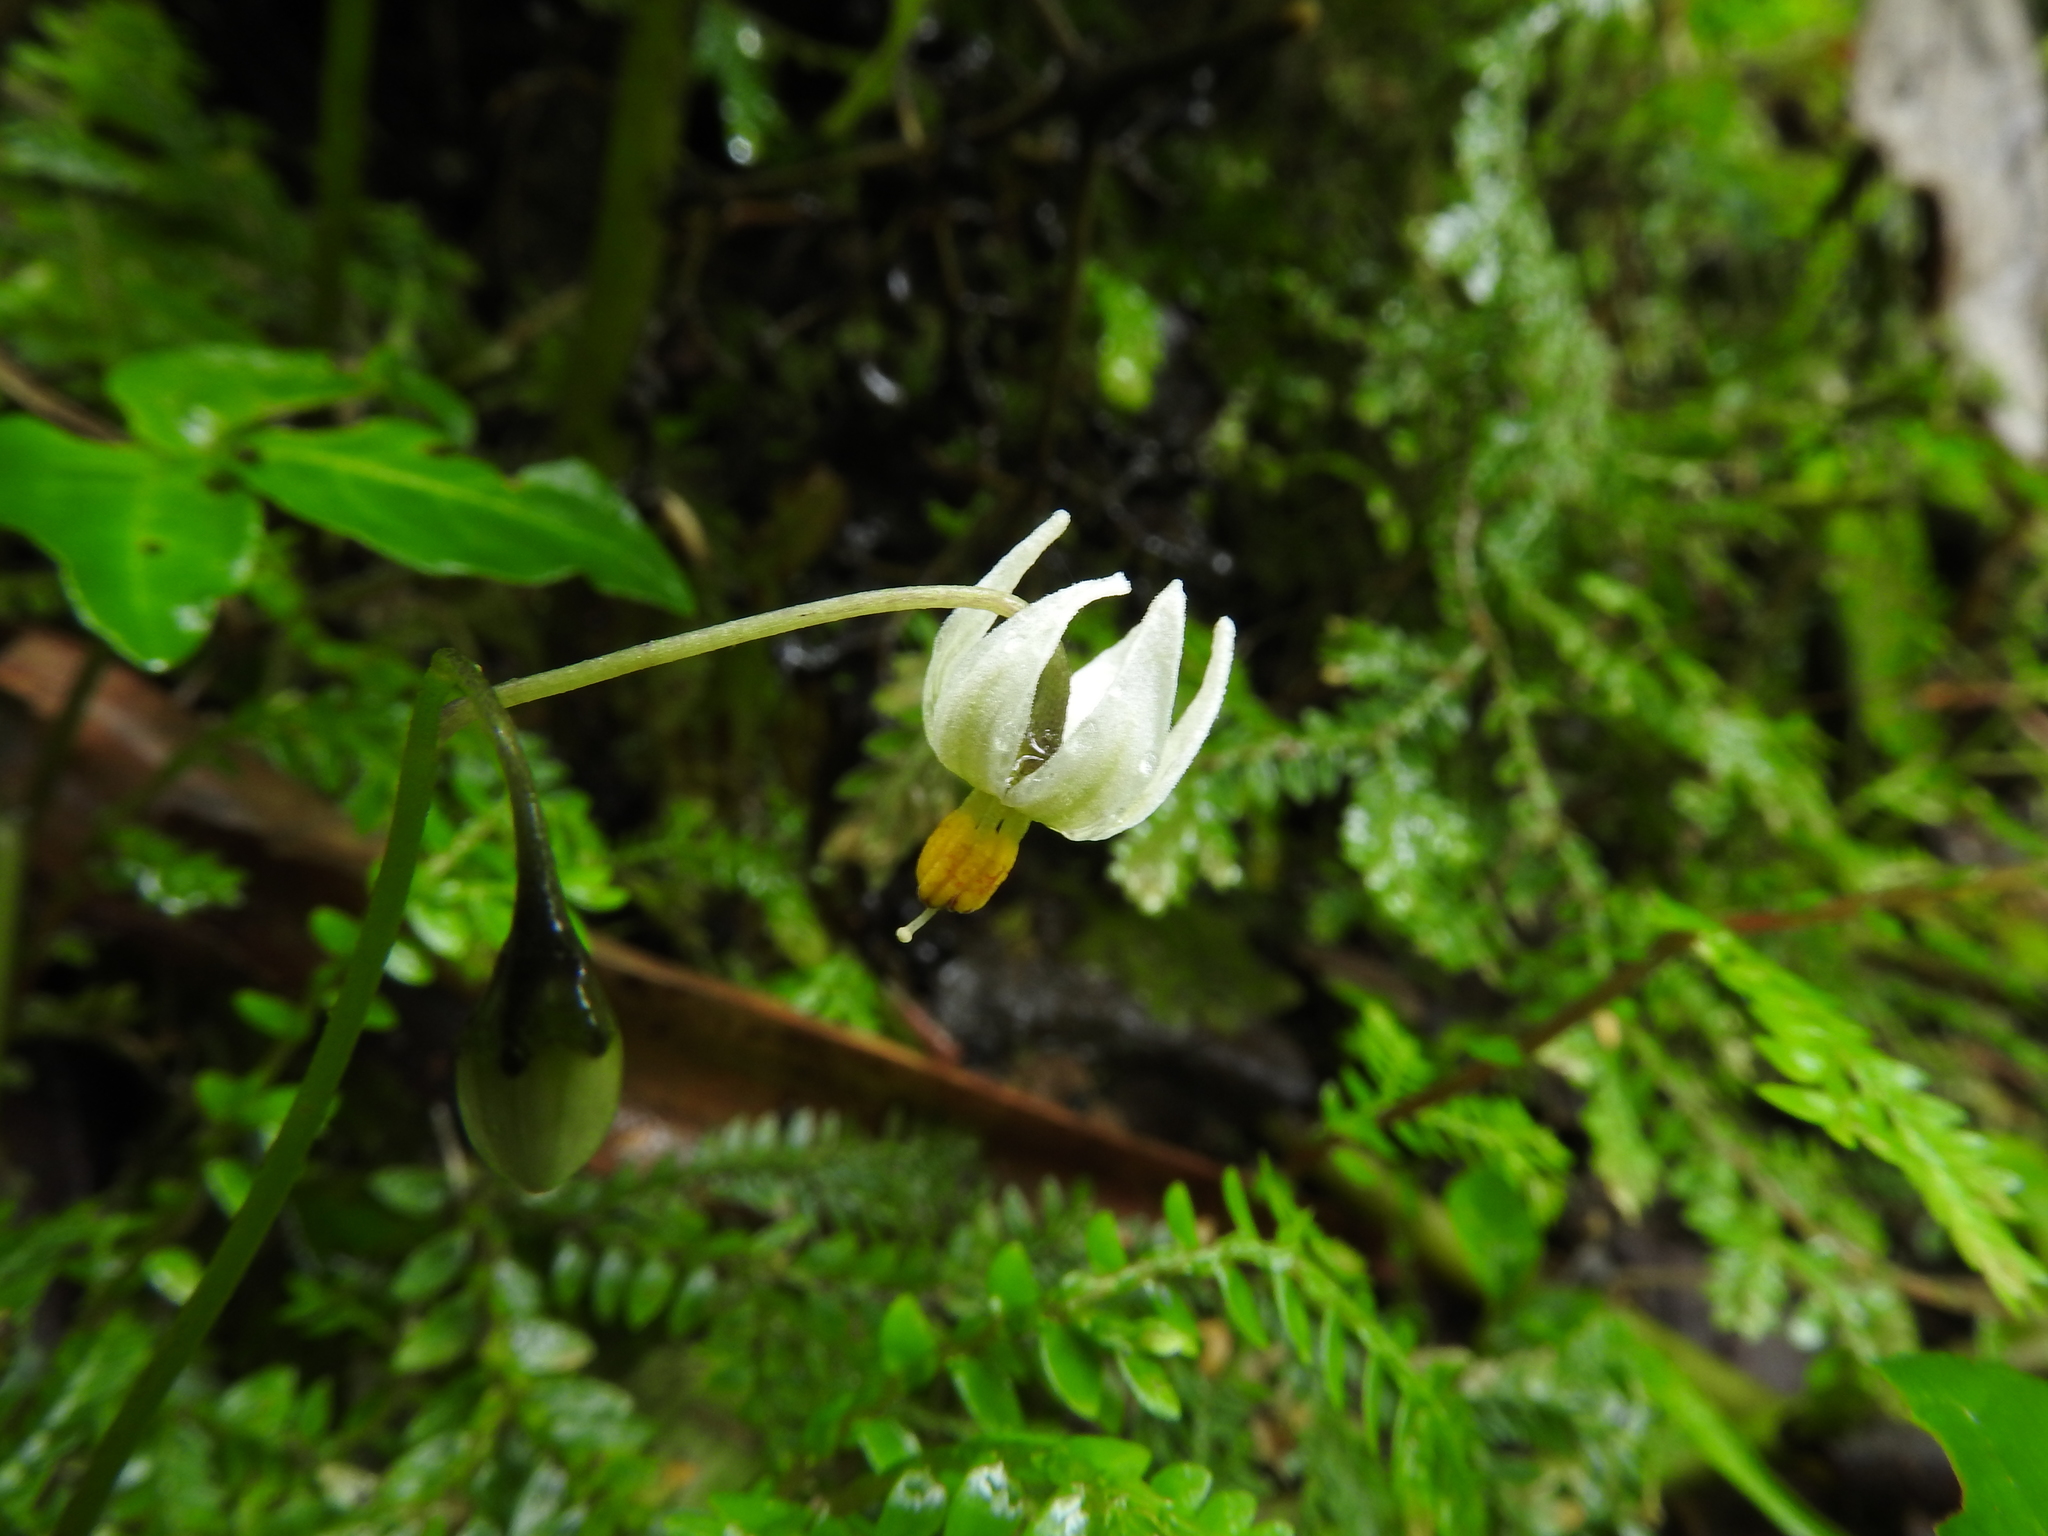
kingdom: Plantae
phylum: Tracheophyta
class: Magnoliopsida
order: Solanales
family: Solanaceae
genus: Solanum
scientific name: Solanum
